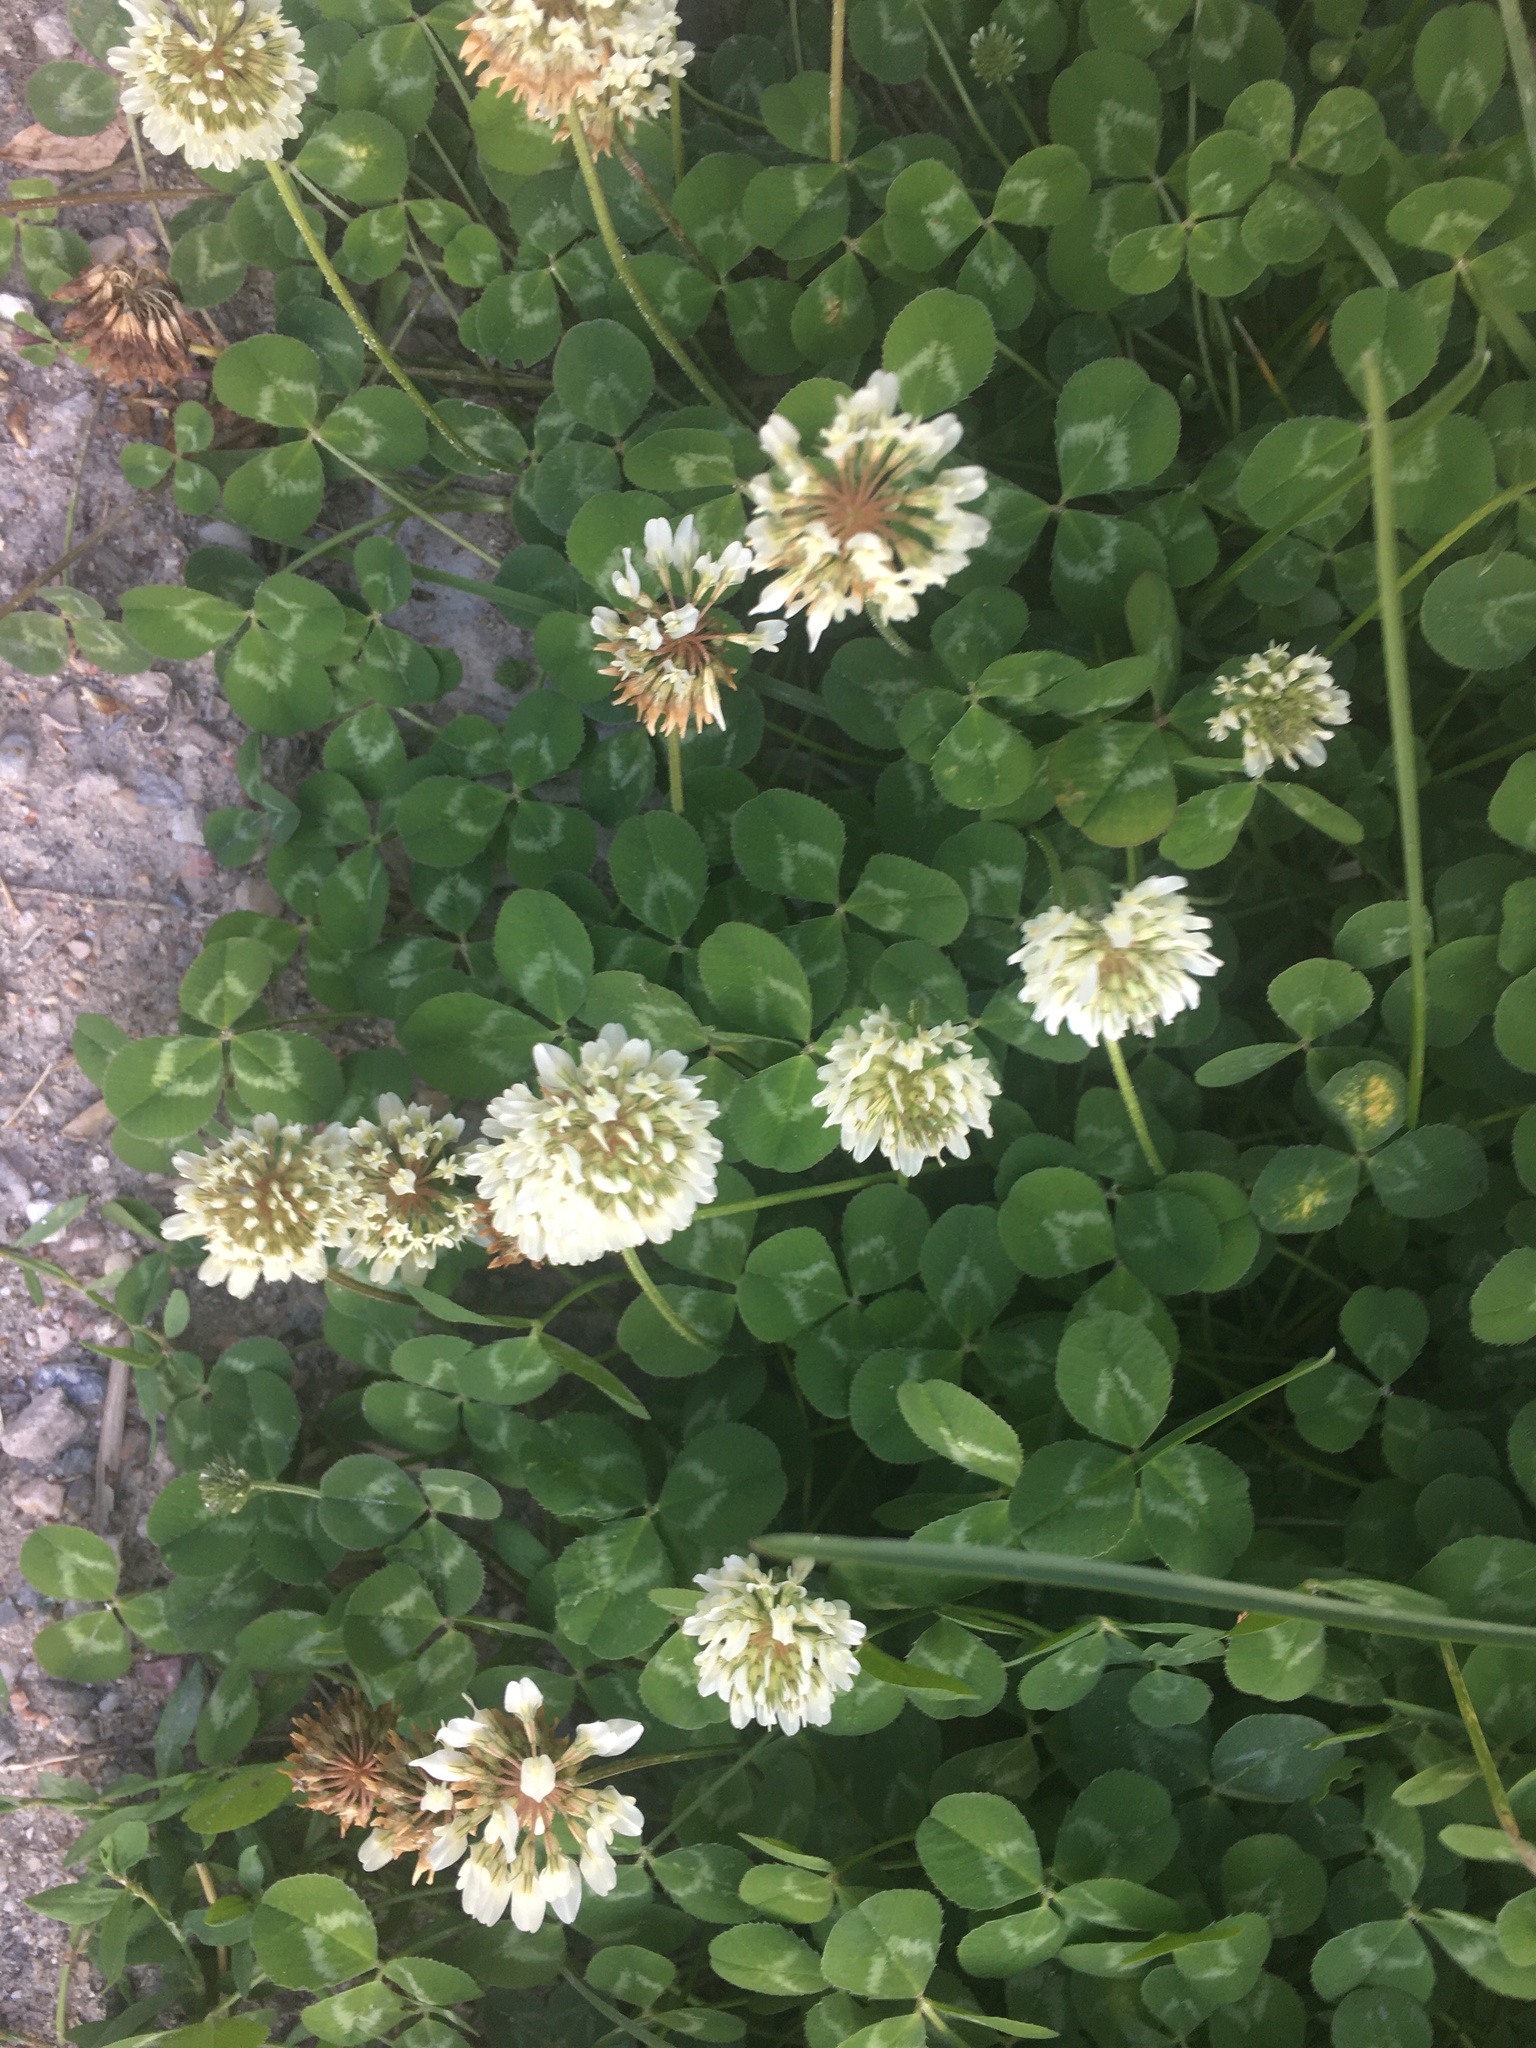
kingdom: Plantae
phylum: Tracheophyta
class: Magnoliopsida
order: Fabales
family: Fabaceae
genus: Trifolium
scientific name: Trifolium repens
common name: White clover
